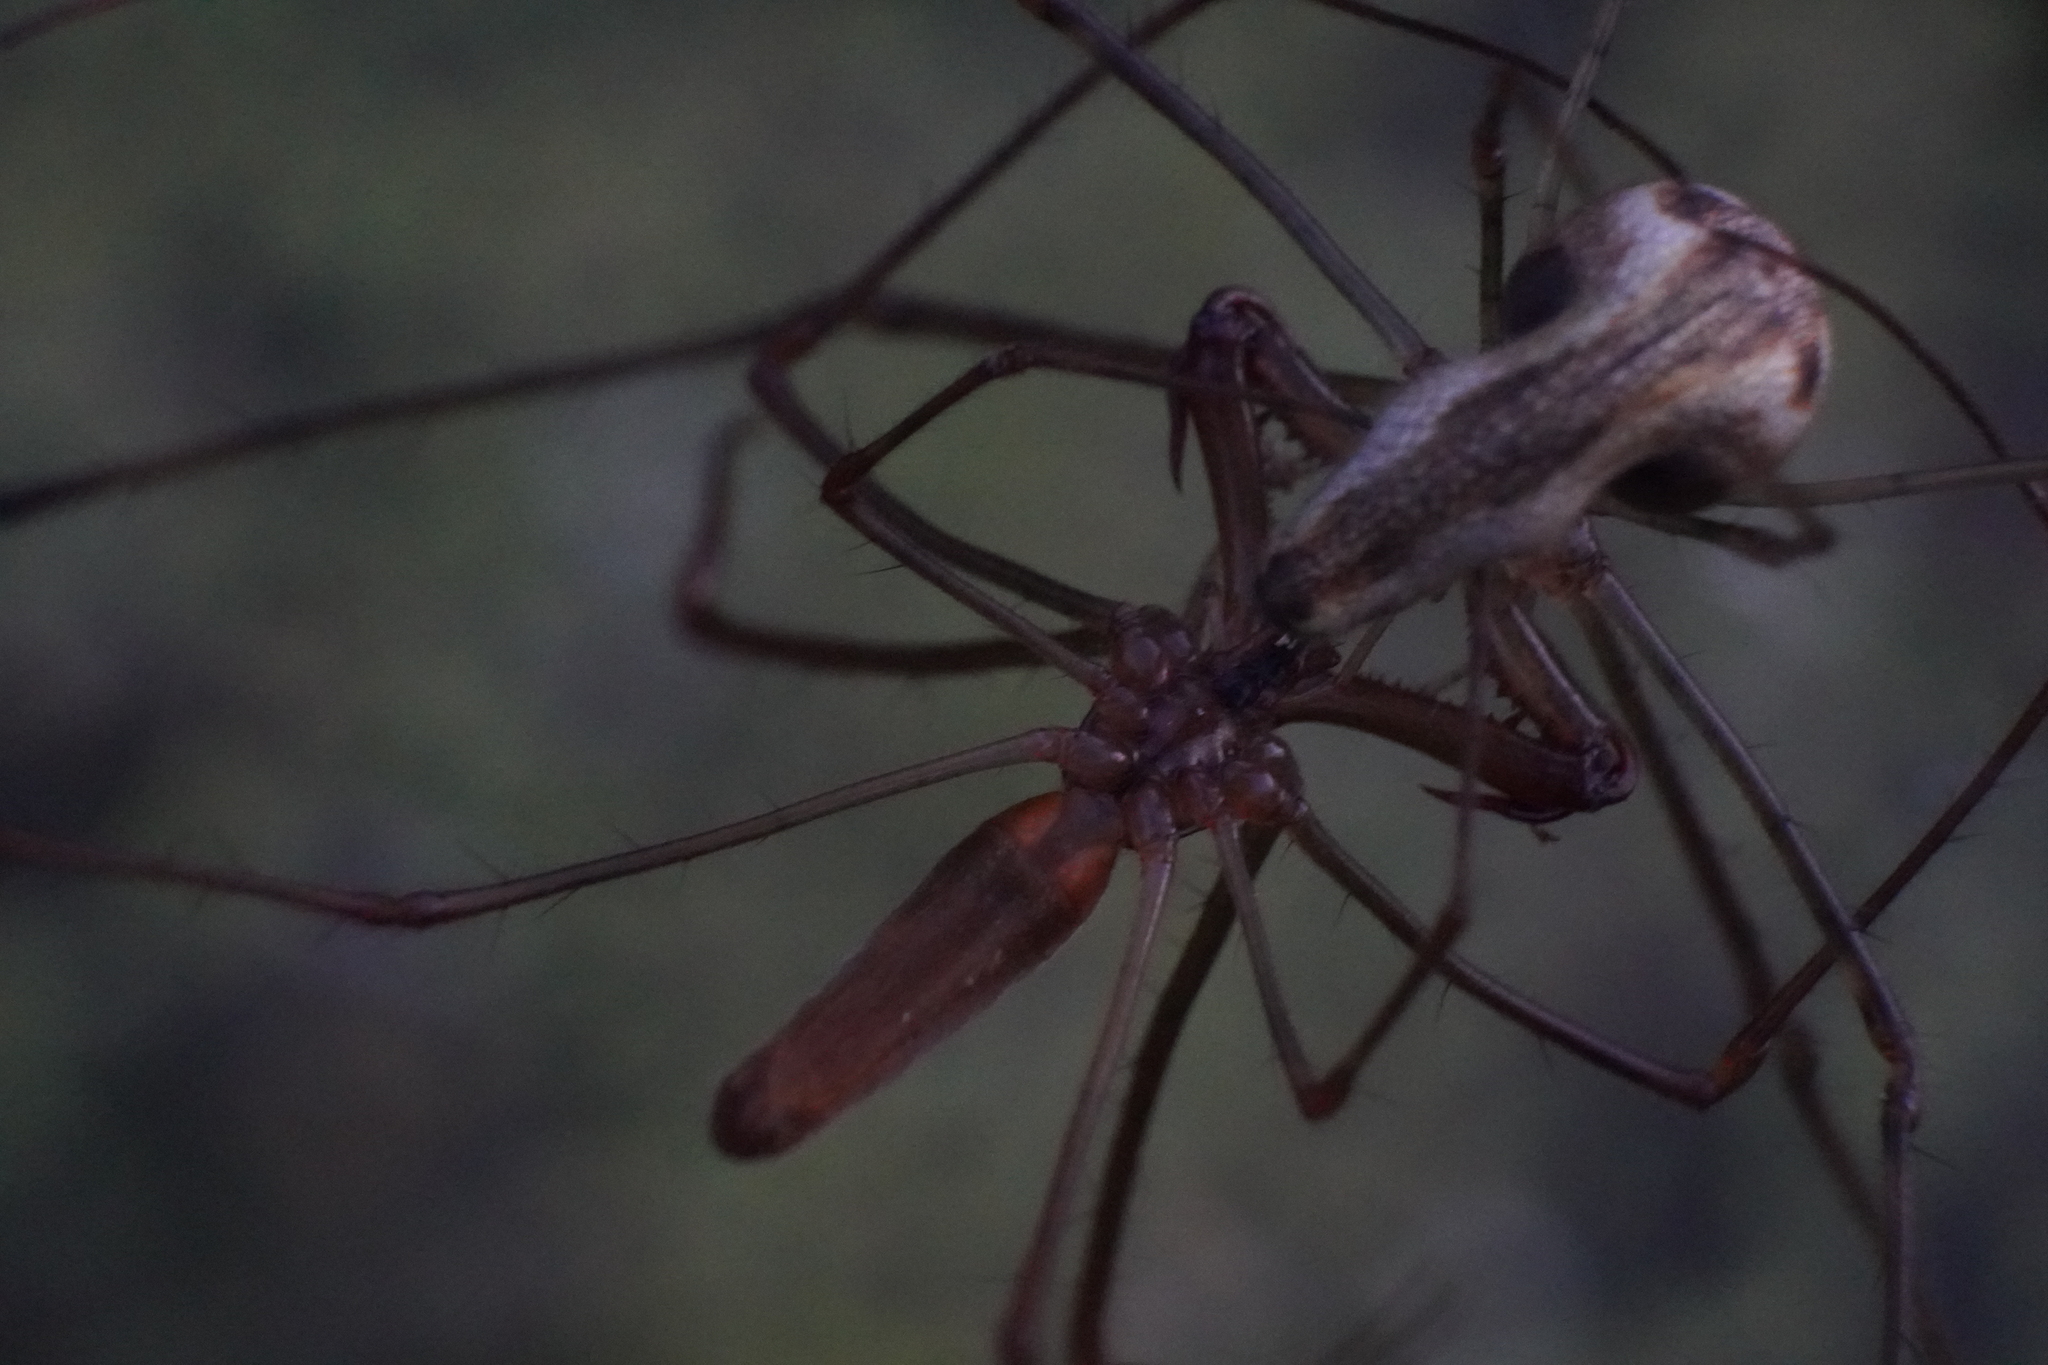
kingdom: Animalia
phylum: Arthropoda
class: Arachnida
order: Araneae
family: Tetragnathidae
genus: Tetragnatha
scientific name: Tetragnatha elongata
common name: Longjawed orb weavers
